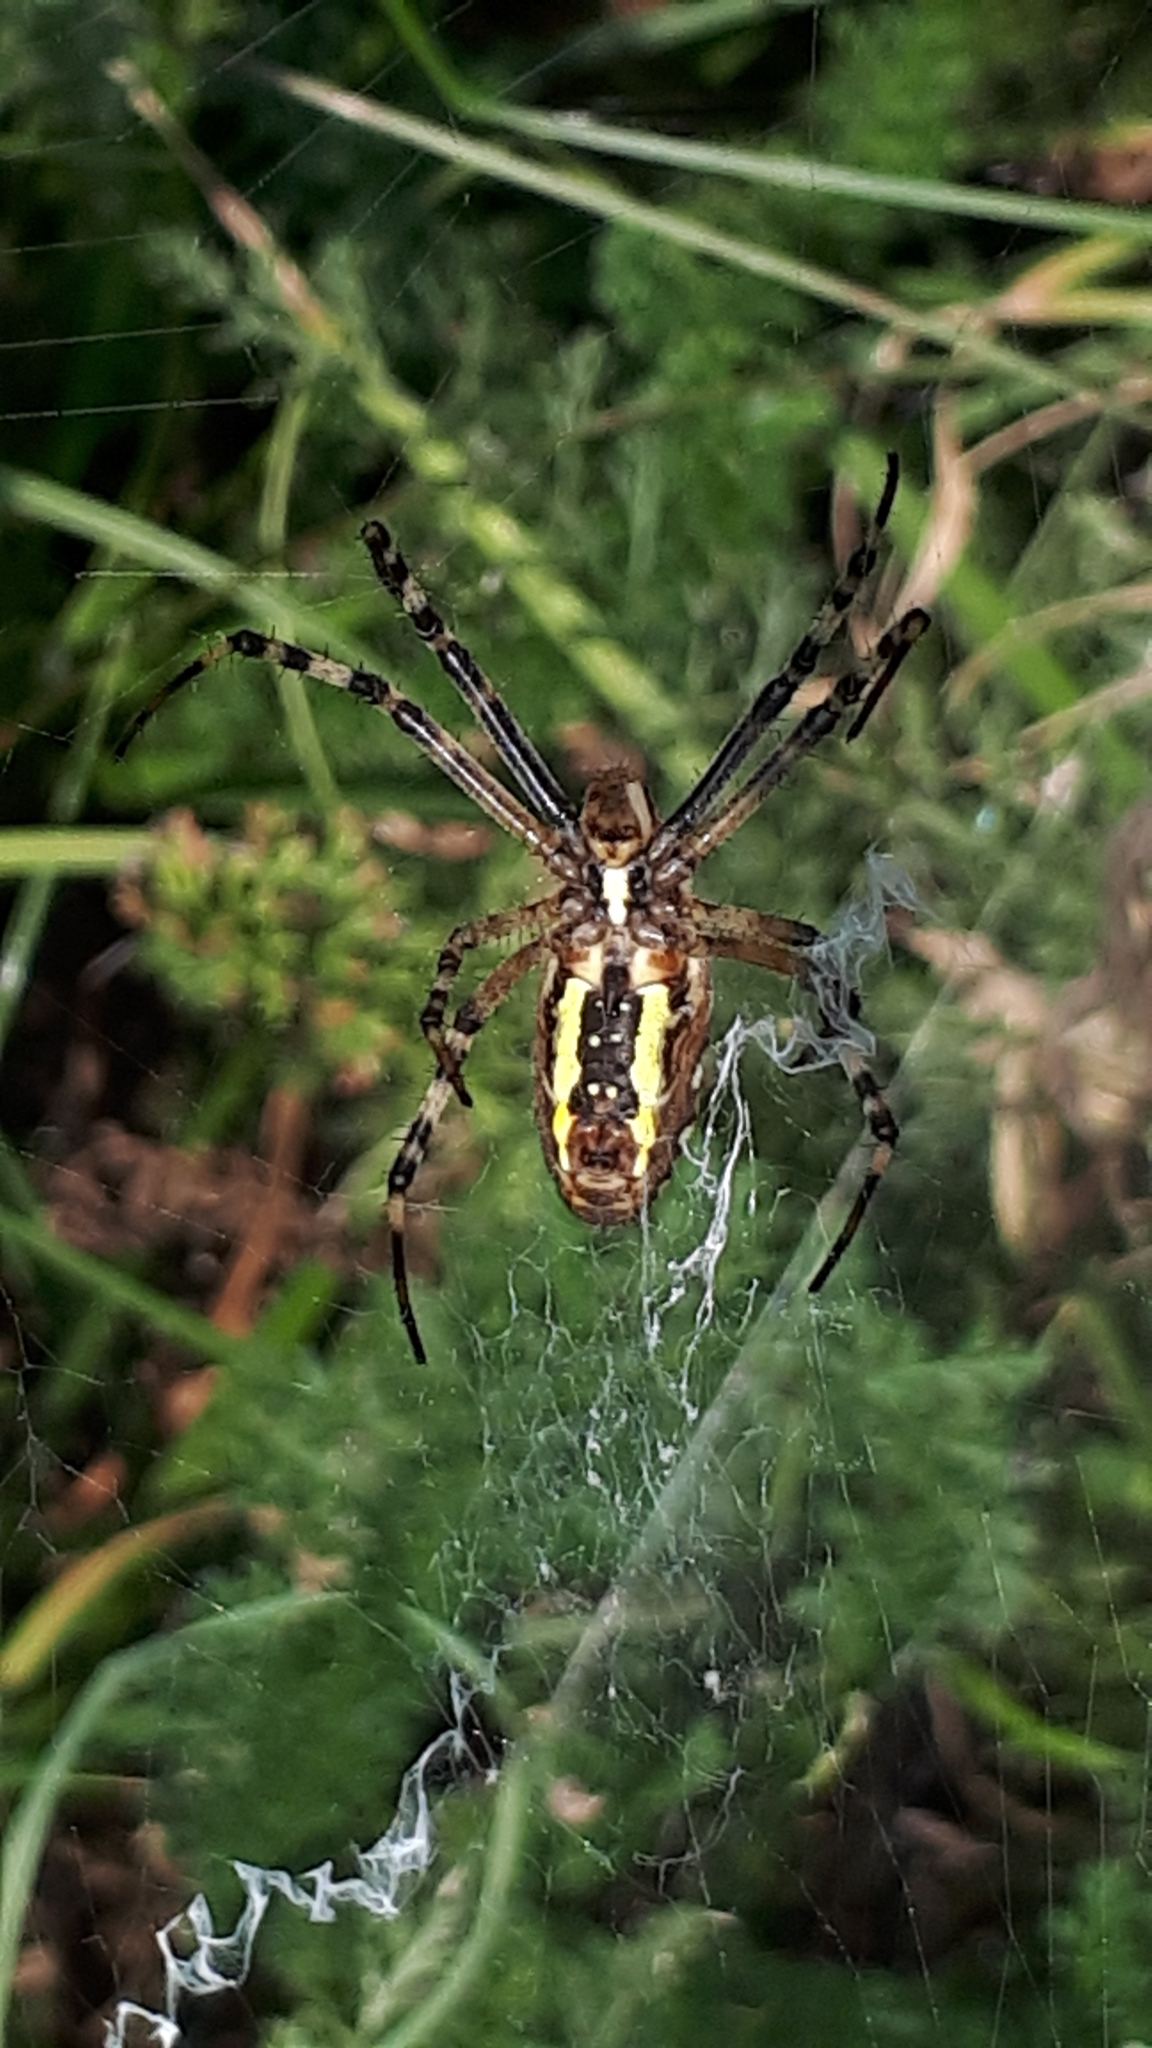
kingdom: Animalia
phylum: Arthropoda
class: Arachnida
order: Araneae
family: Araneidae
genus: Argiope
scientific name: Argiope bruennichi
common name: Wasp spider
